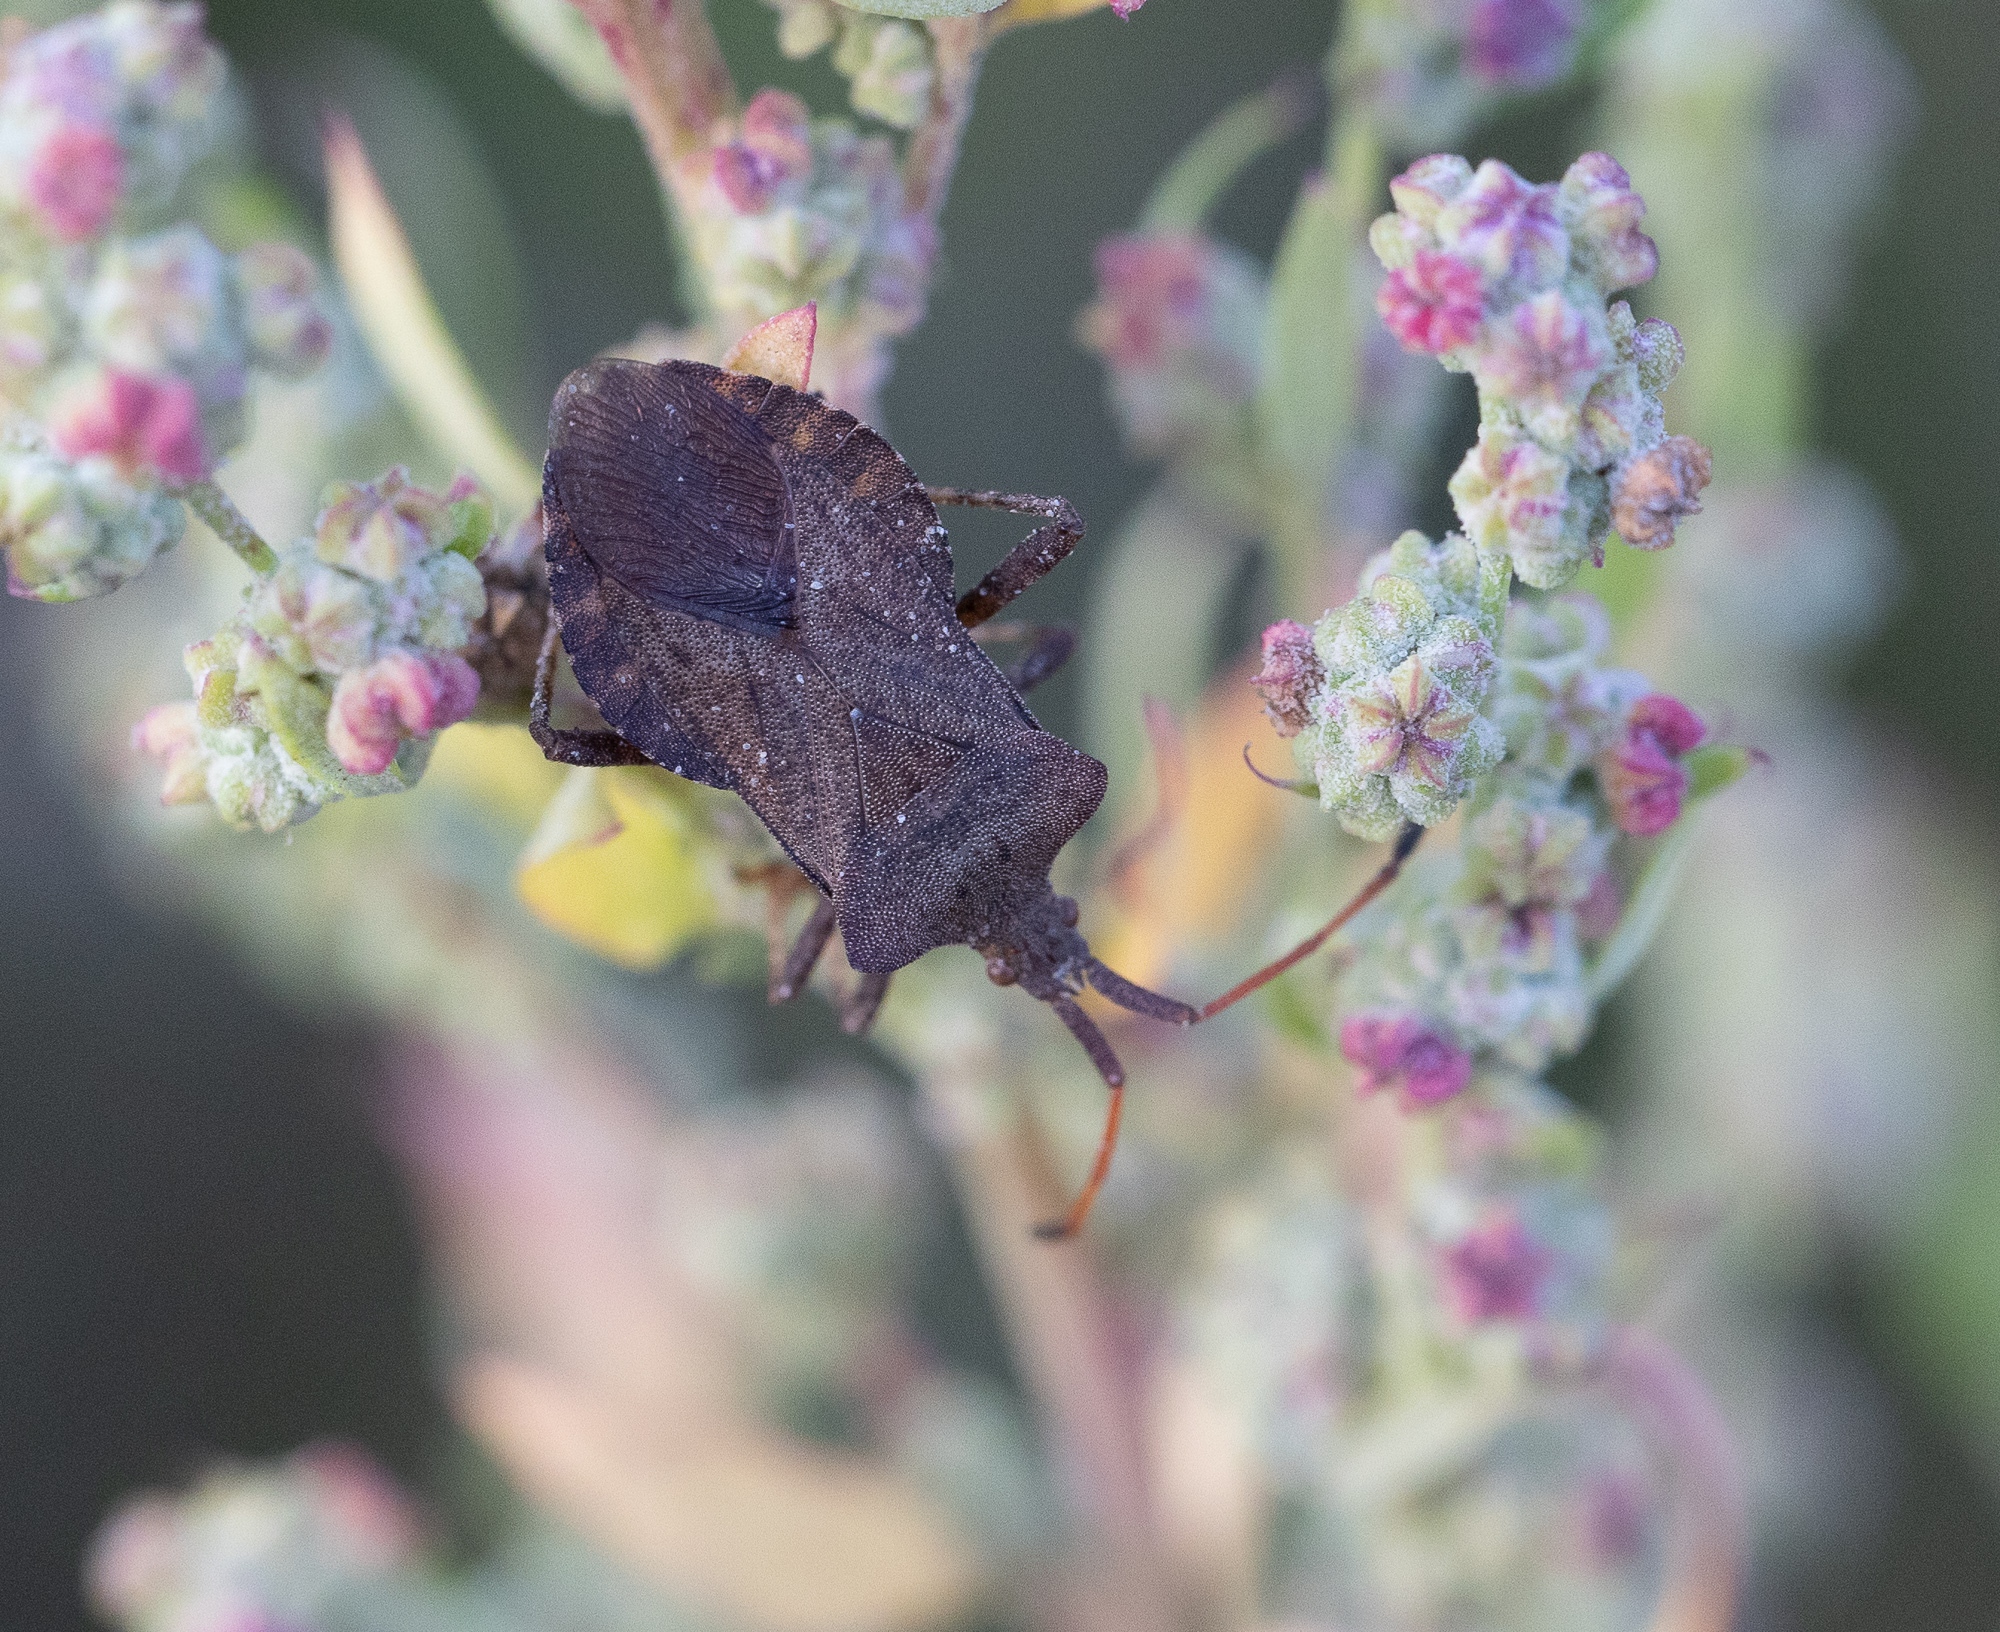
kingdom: Animalia
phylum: Arthropoda
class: Insecta
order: Hemiptera
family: Coreidae
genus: Coreus
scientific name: Coreus marginatus
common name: Dock bug
